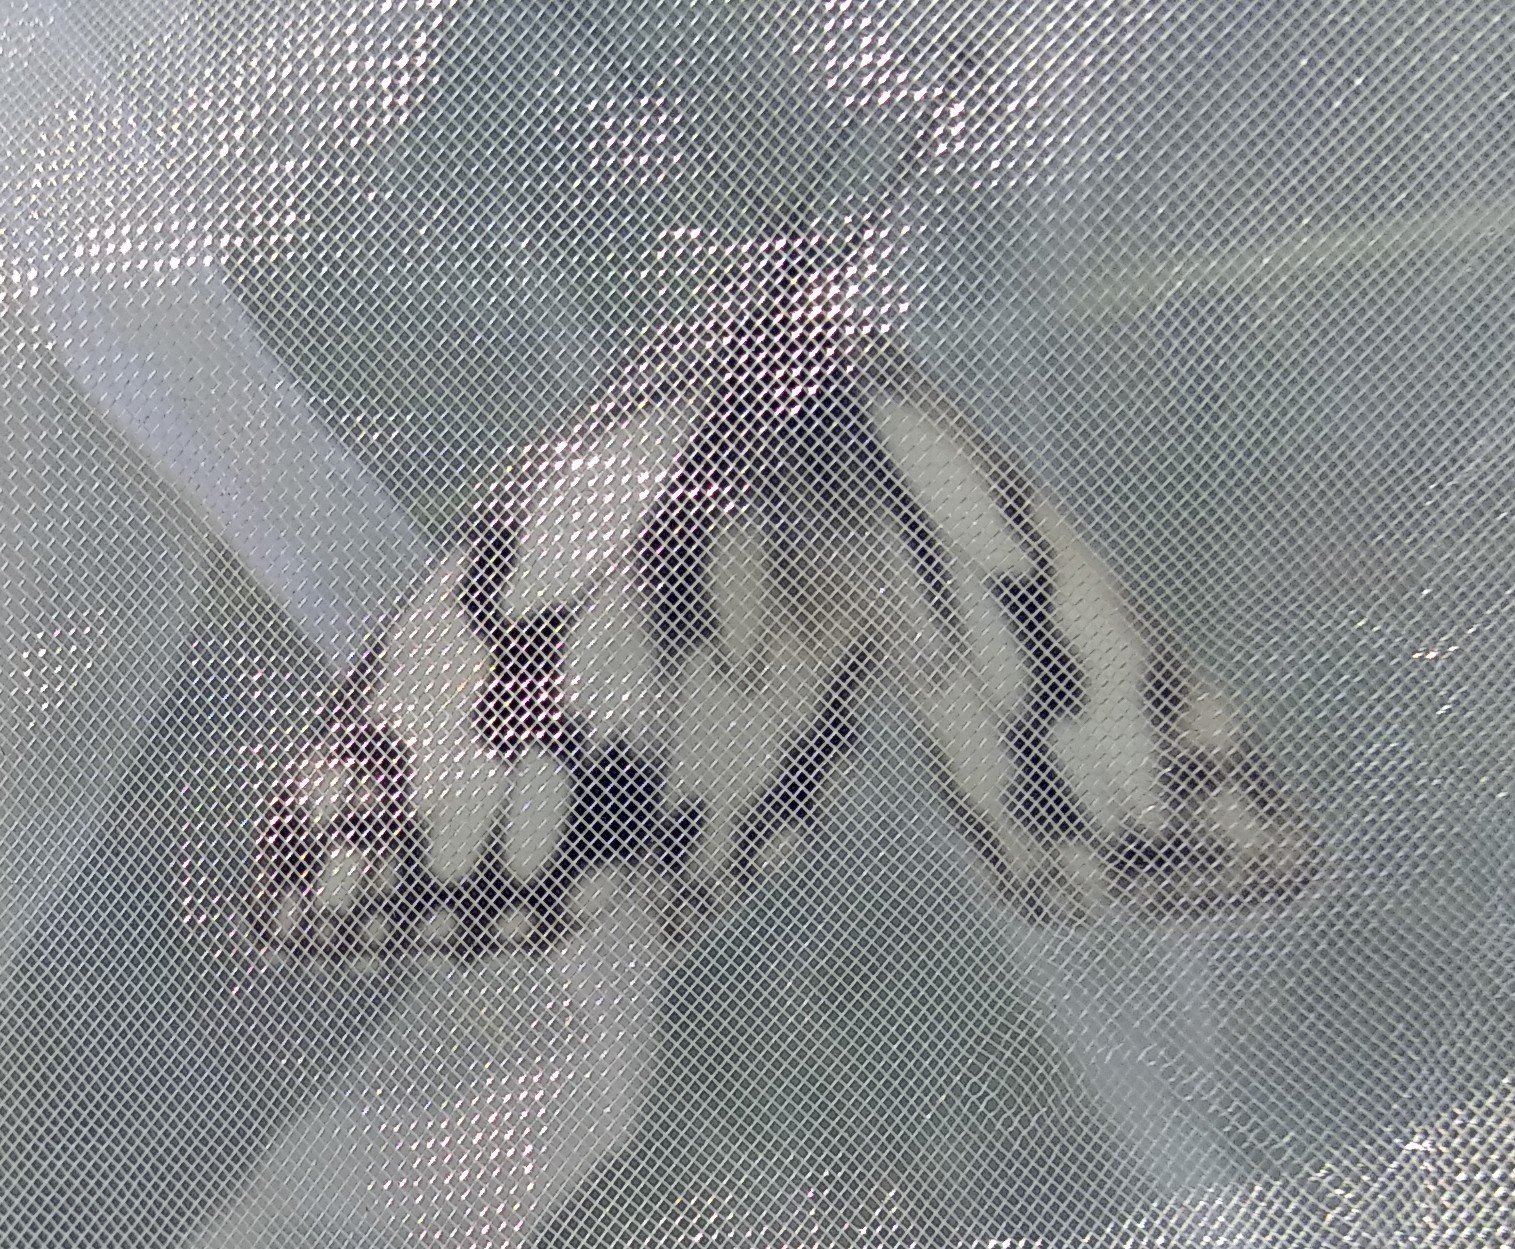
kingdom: Animalia
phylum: Arthropoda
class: Insecta
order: Lepidoptera
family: Nymphalidae
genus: Melanargia
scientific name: Melanargia lachesis
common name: Iberian marbled white
